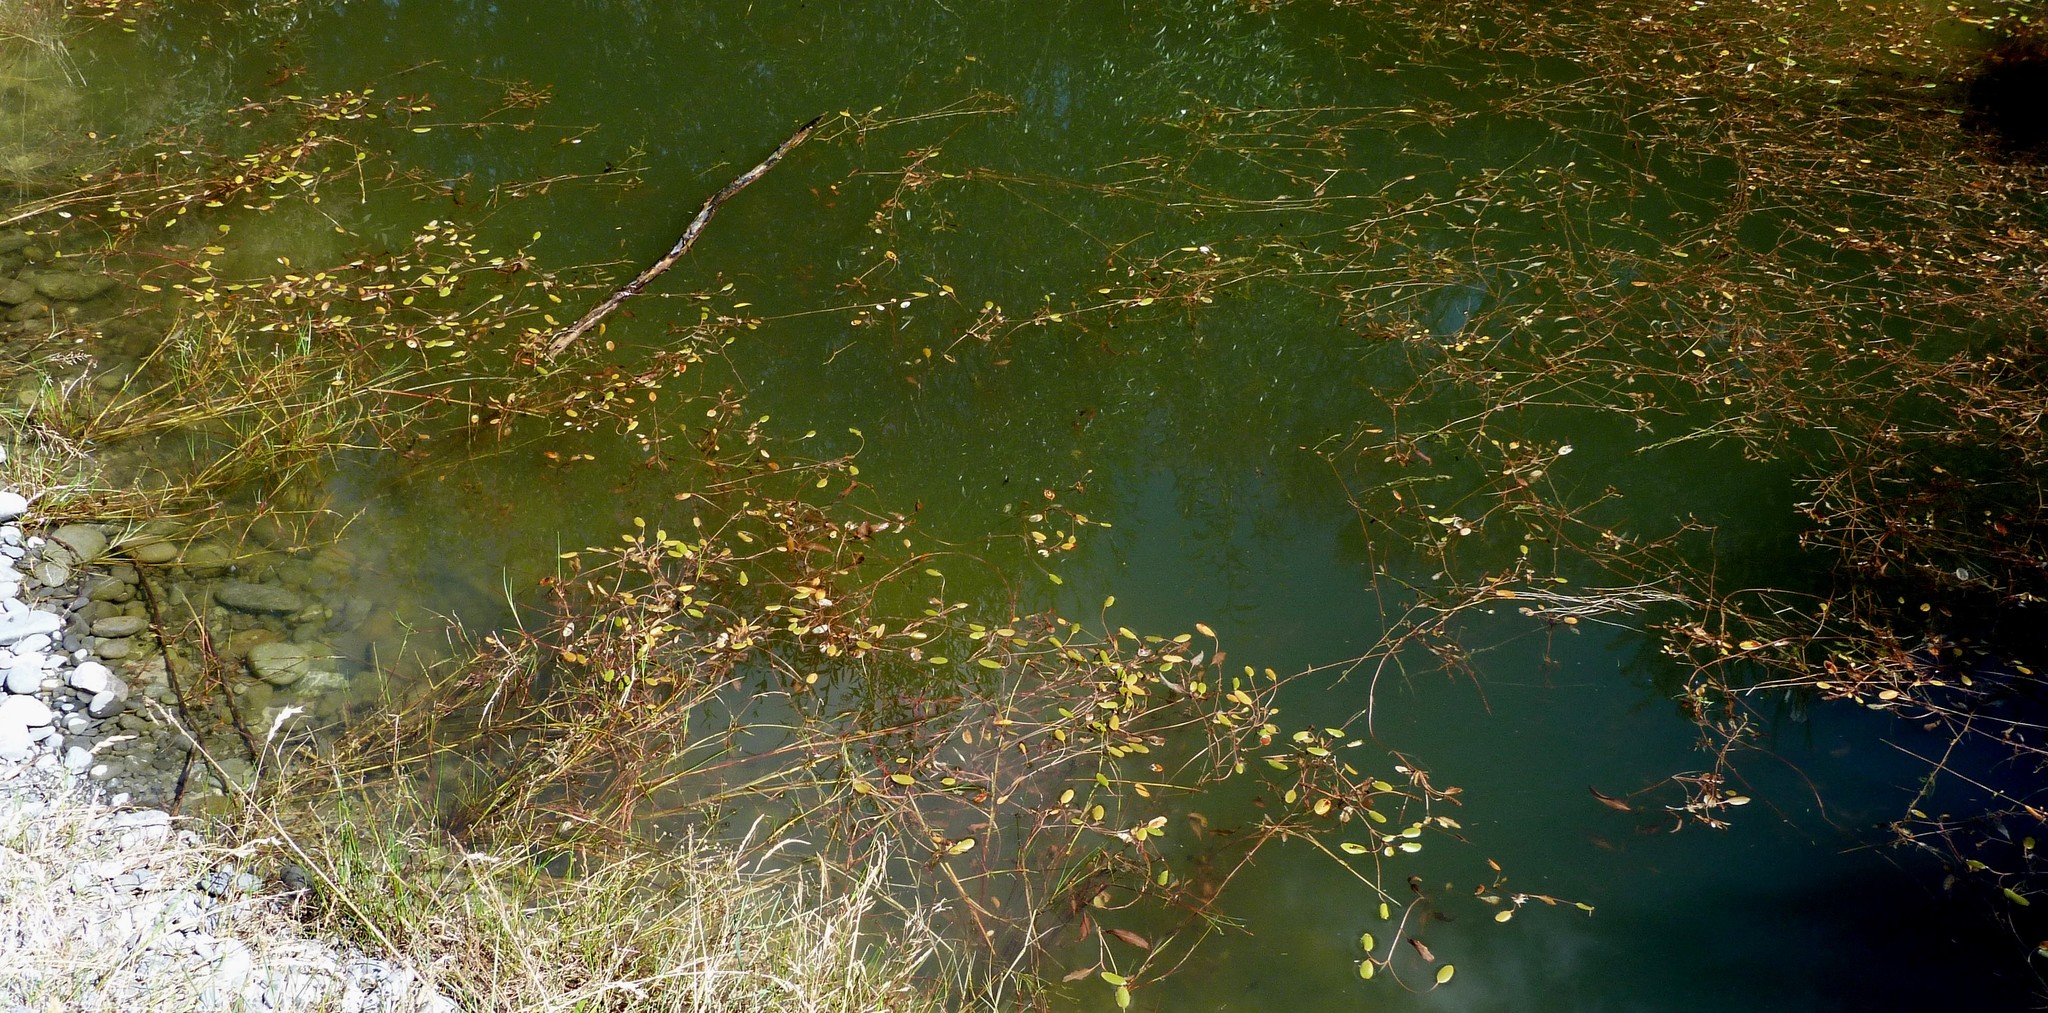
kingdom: Plantae
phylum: Tracheophyta
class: Liliopsida
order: Alismatales
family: Potamogetonaceae
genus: Potamogeton
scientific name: Potamogeton cheesemanii
